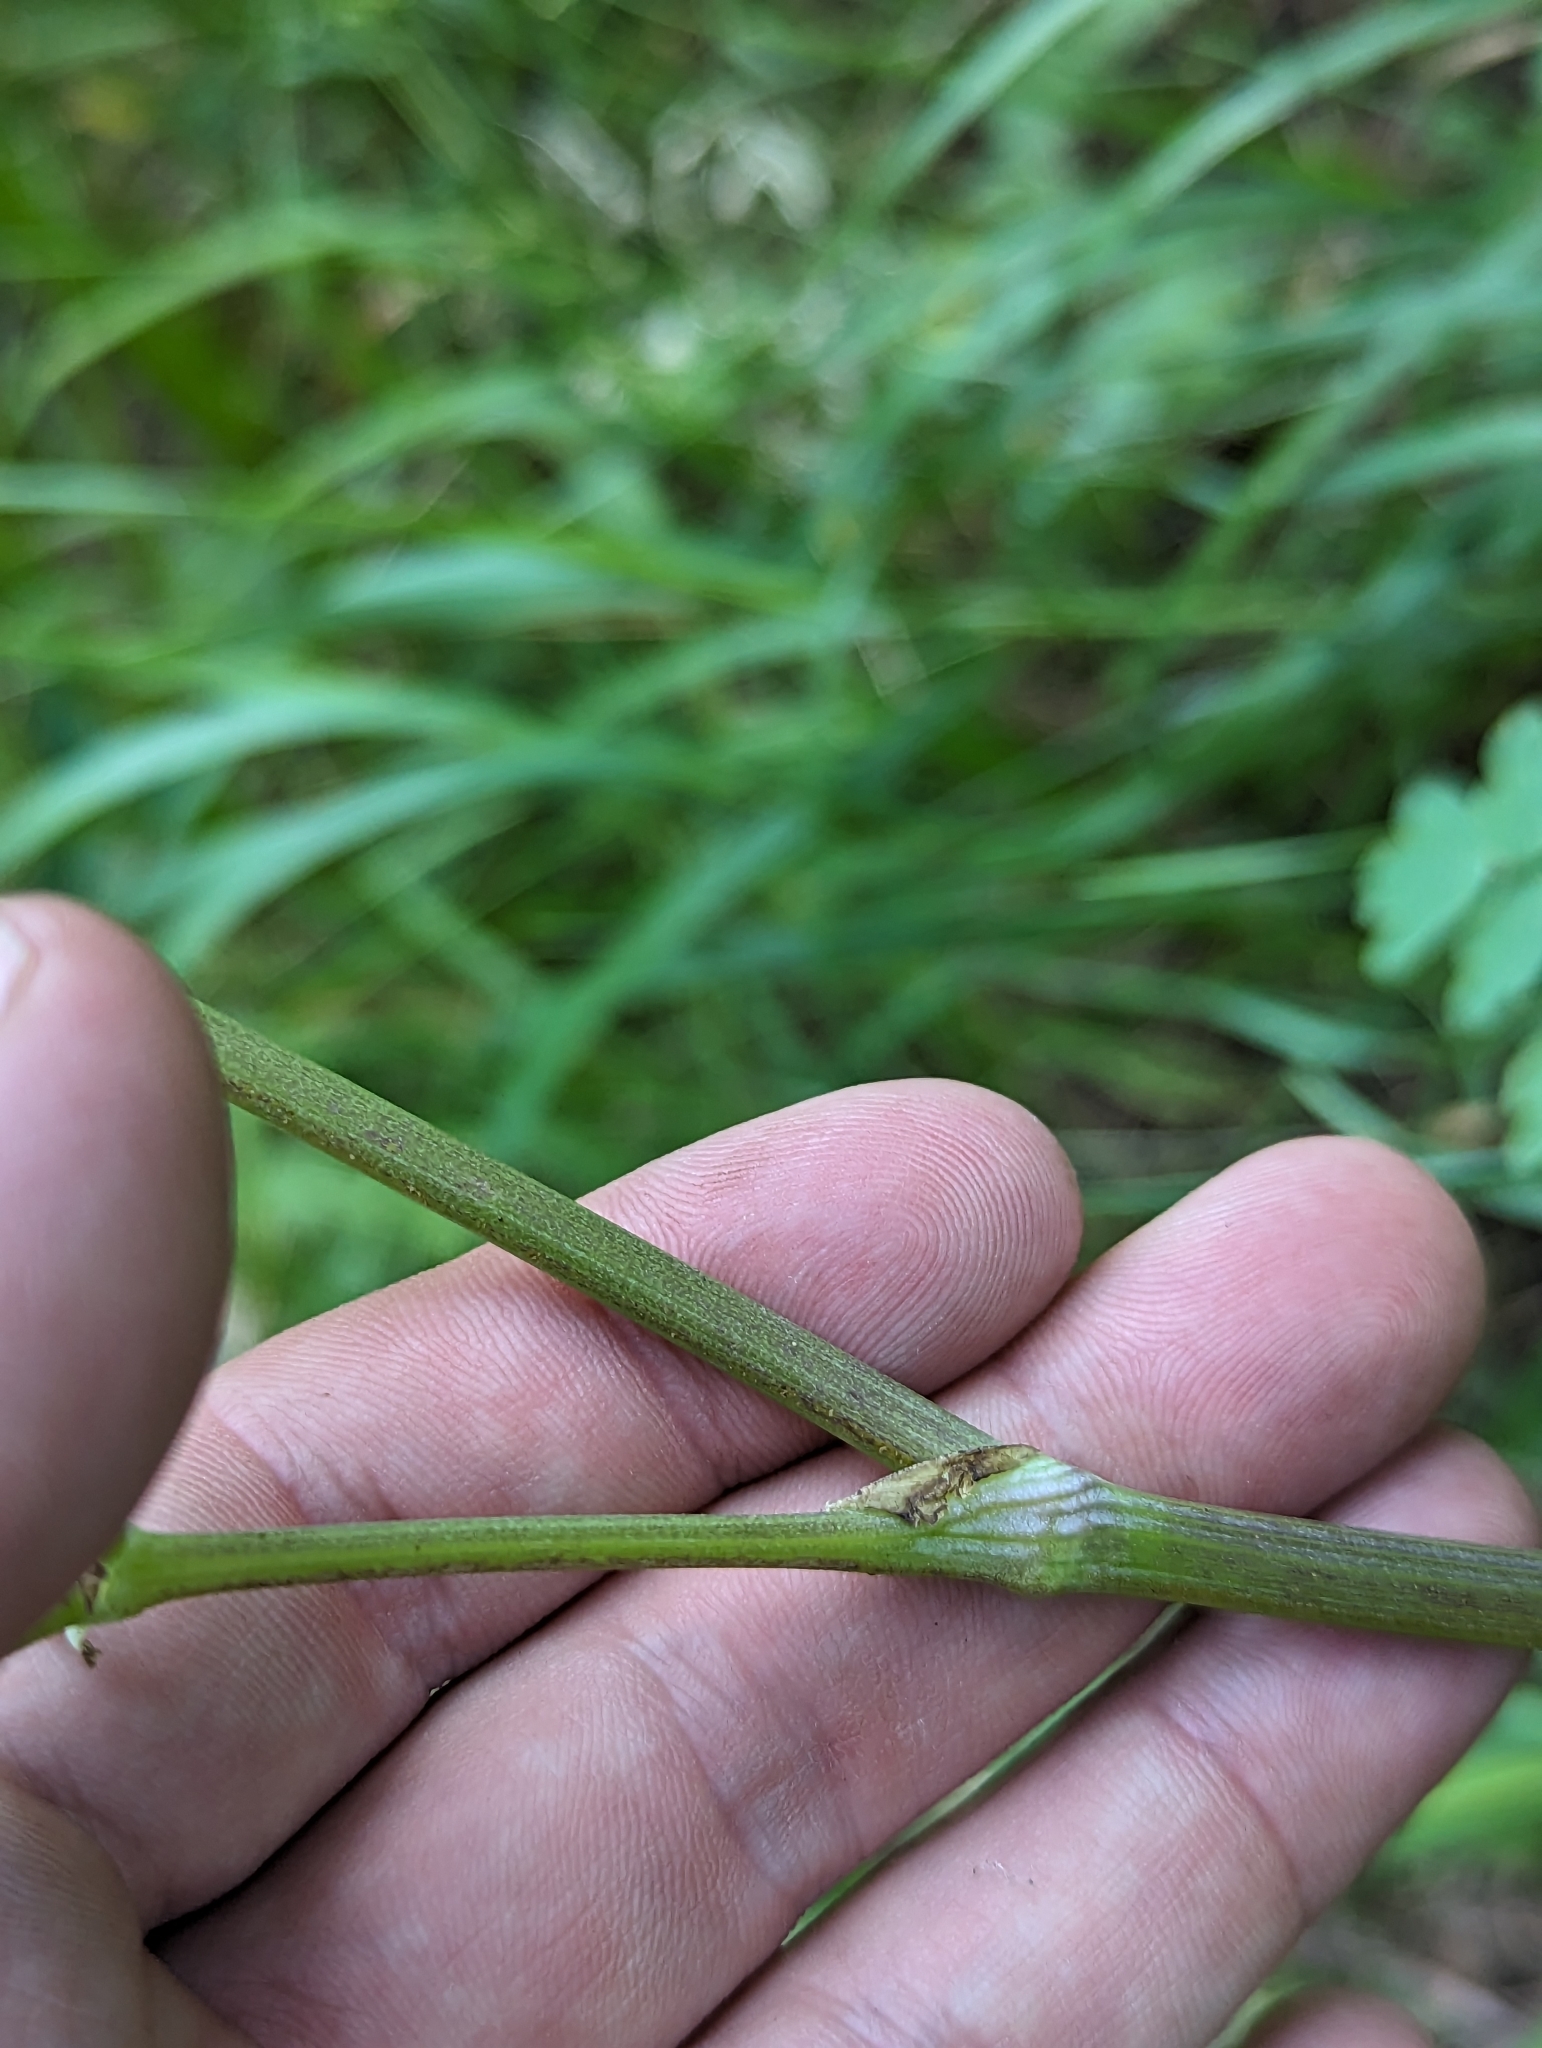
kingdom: Plantae
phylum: Tracheophyta
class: Magnoliopsida
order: Ranunculales
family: Ranunculaceae
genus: Thalictrum
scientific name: Thalictrum fendleri
